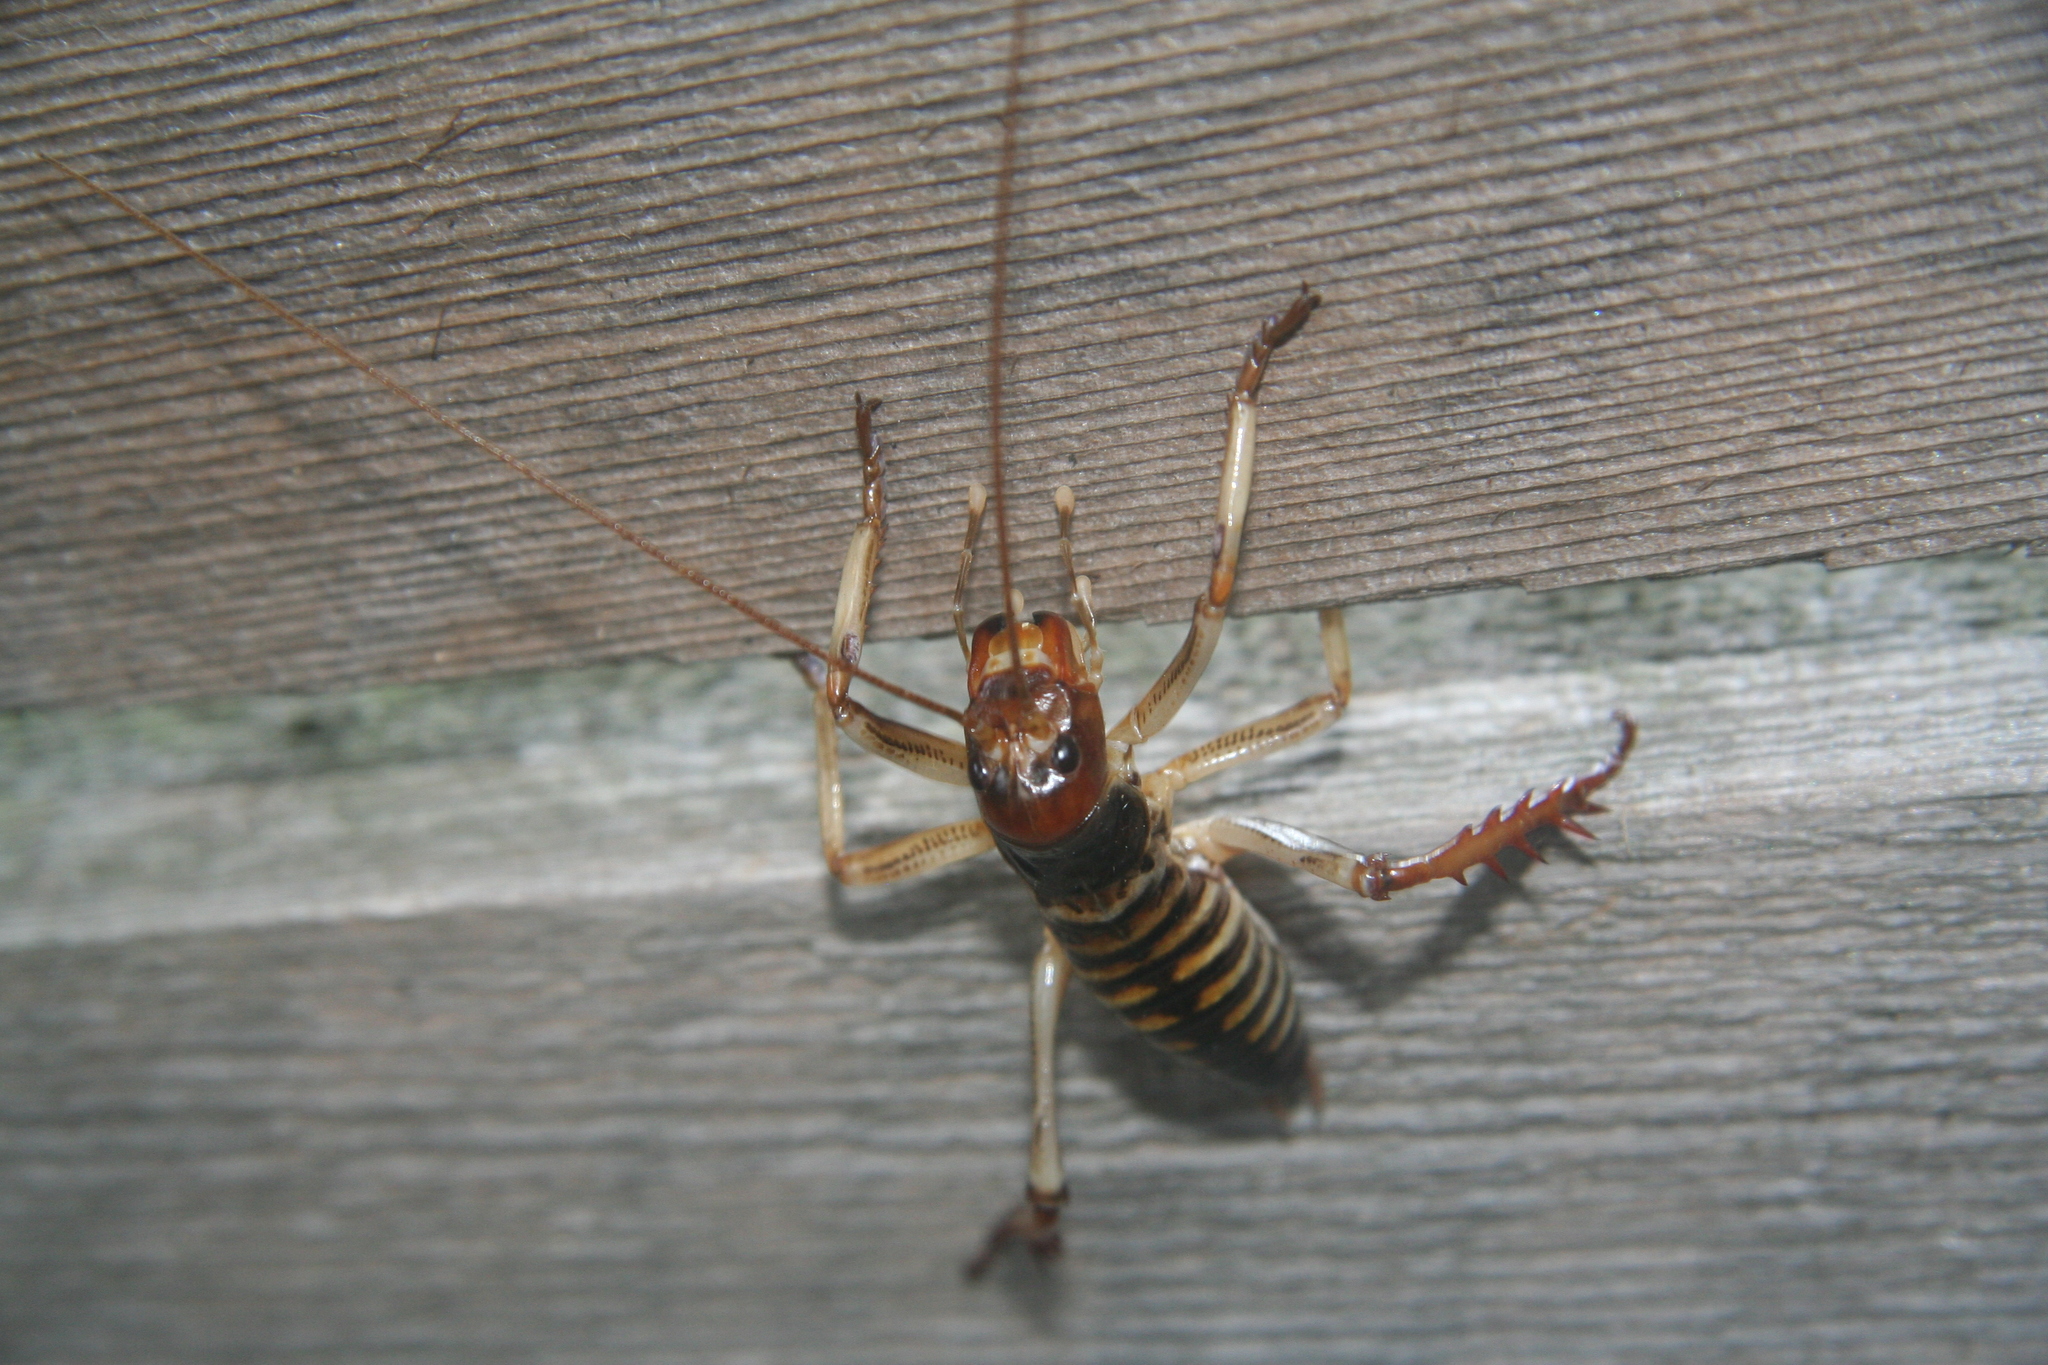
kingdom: Animalia
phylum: Arthropoda
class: Insecta
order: Orthoptera
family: Anostostomatidae
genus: Hemideina
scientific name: Hemideina crassidens
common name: Wellington tree weta
